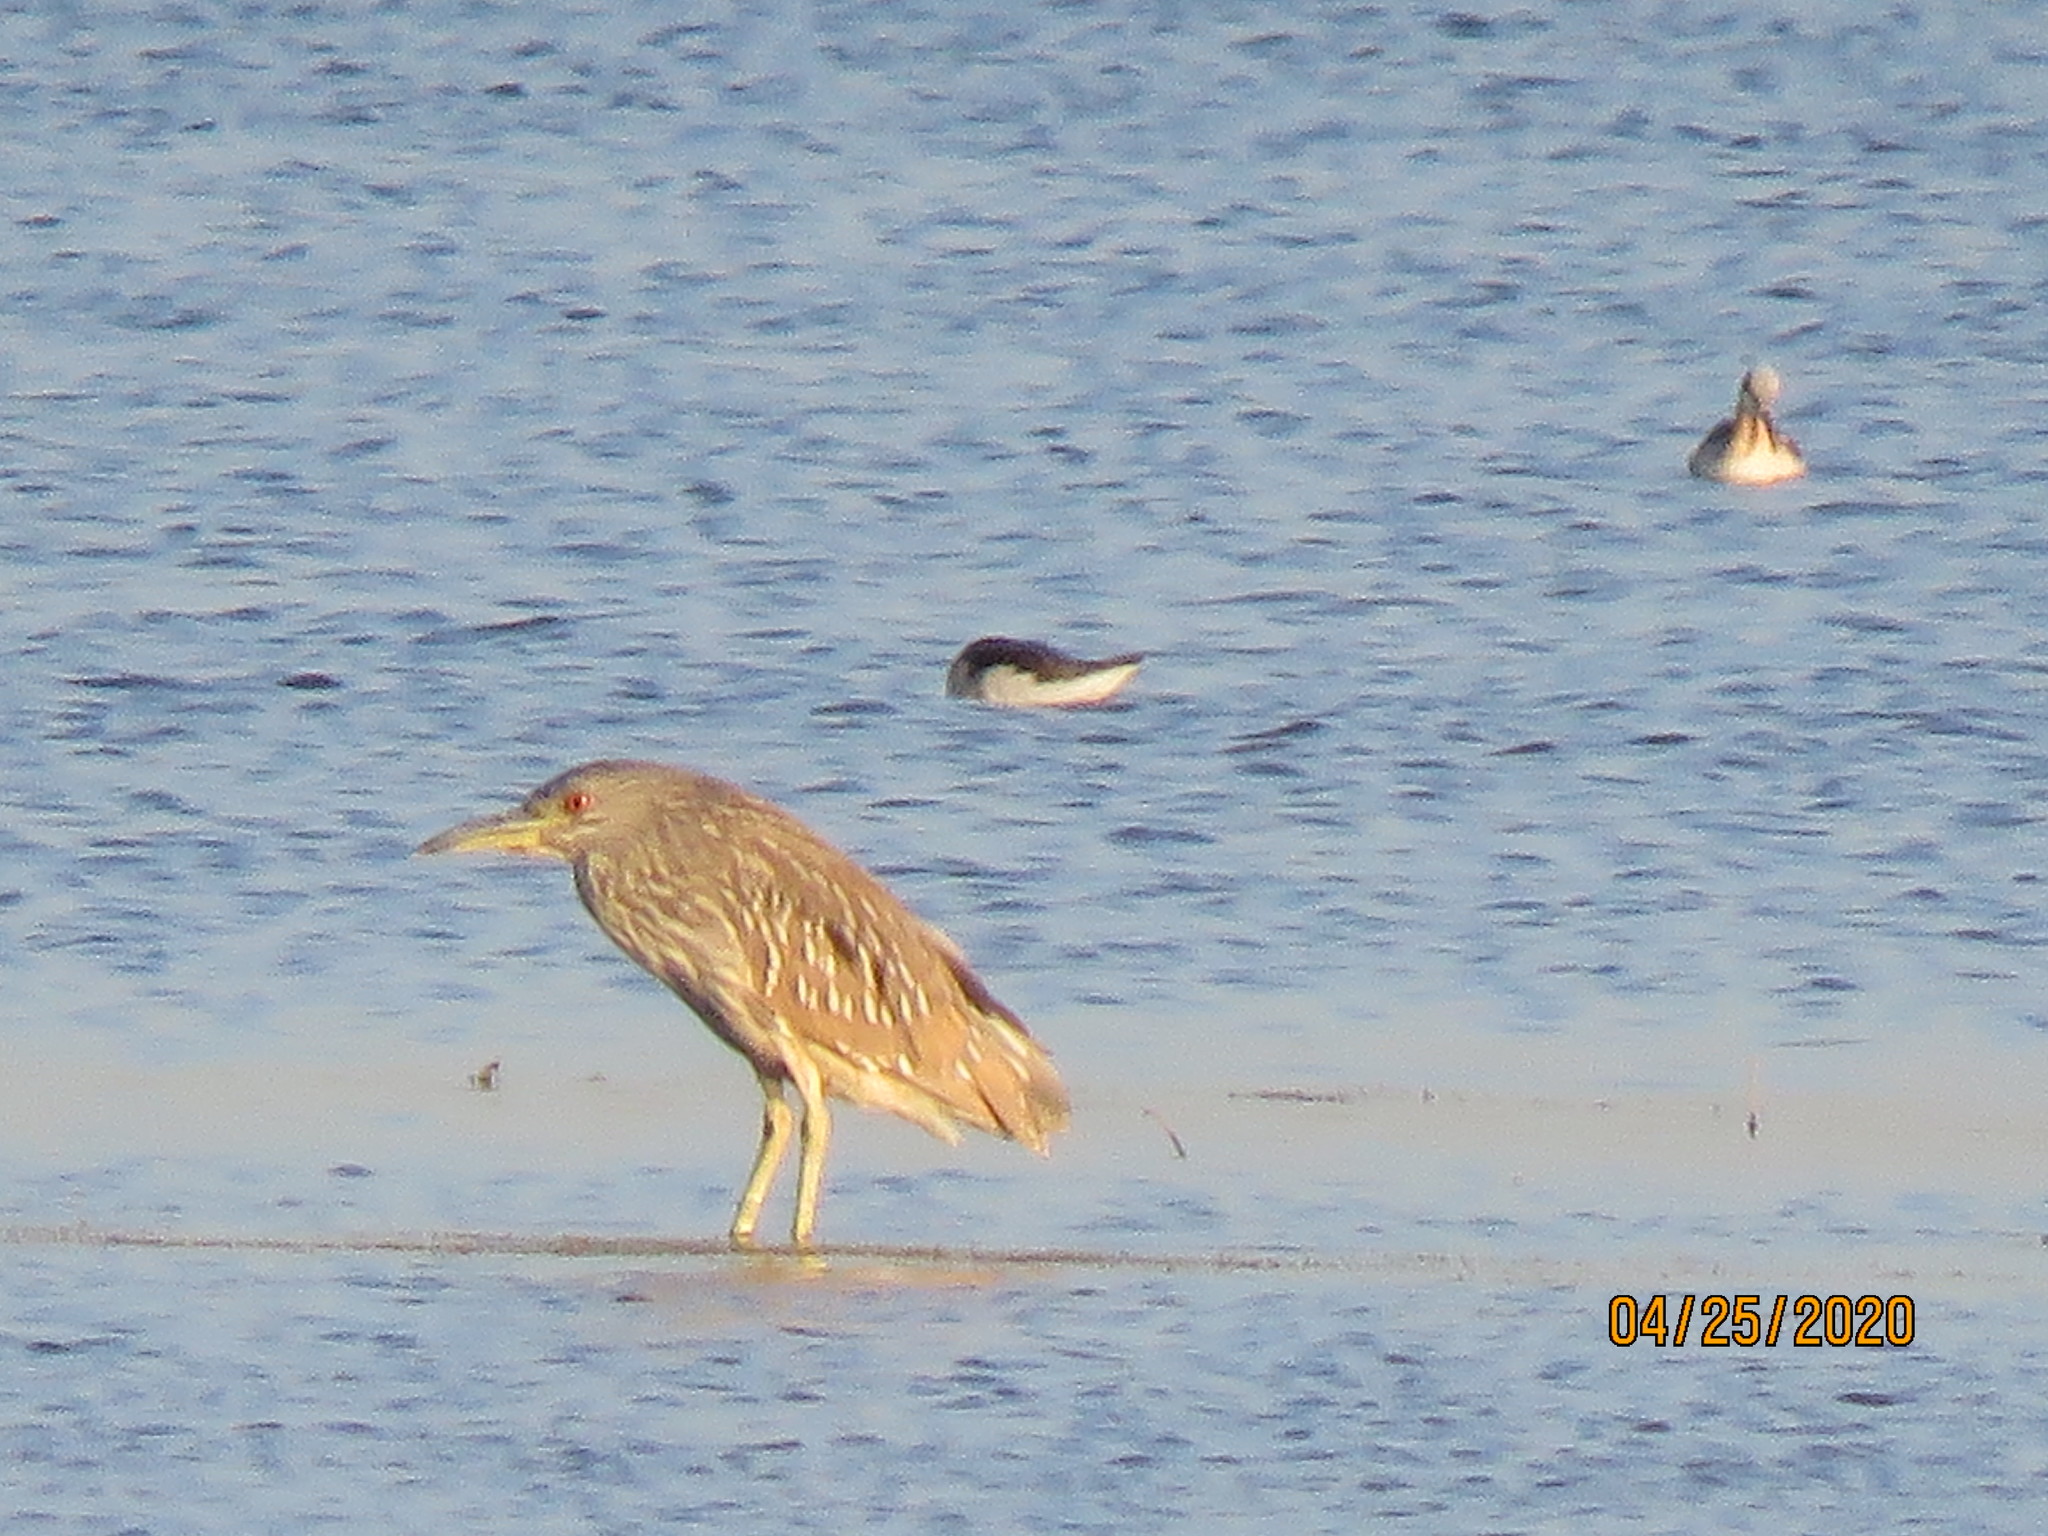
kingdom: Animalia
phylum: Chordata
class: Aves
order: Pelecaniformes
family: Ardeidae
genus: Nycticorax
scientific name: Nycticorax nycticorax
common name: Black-crowned night heron
